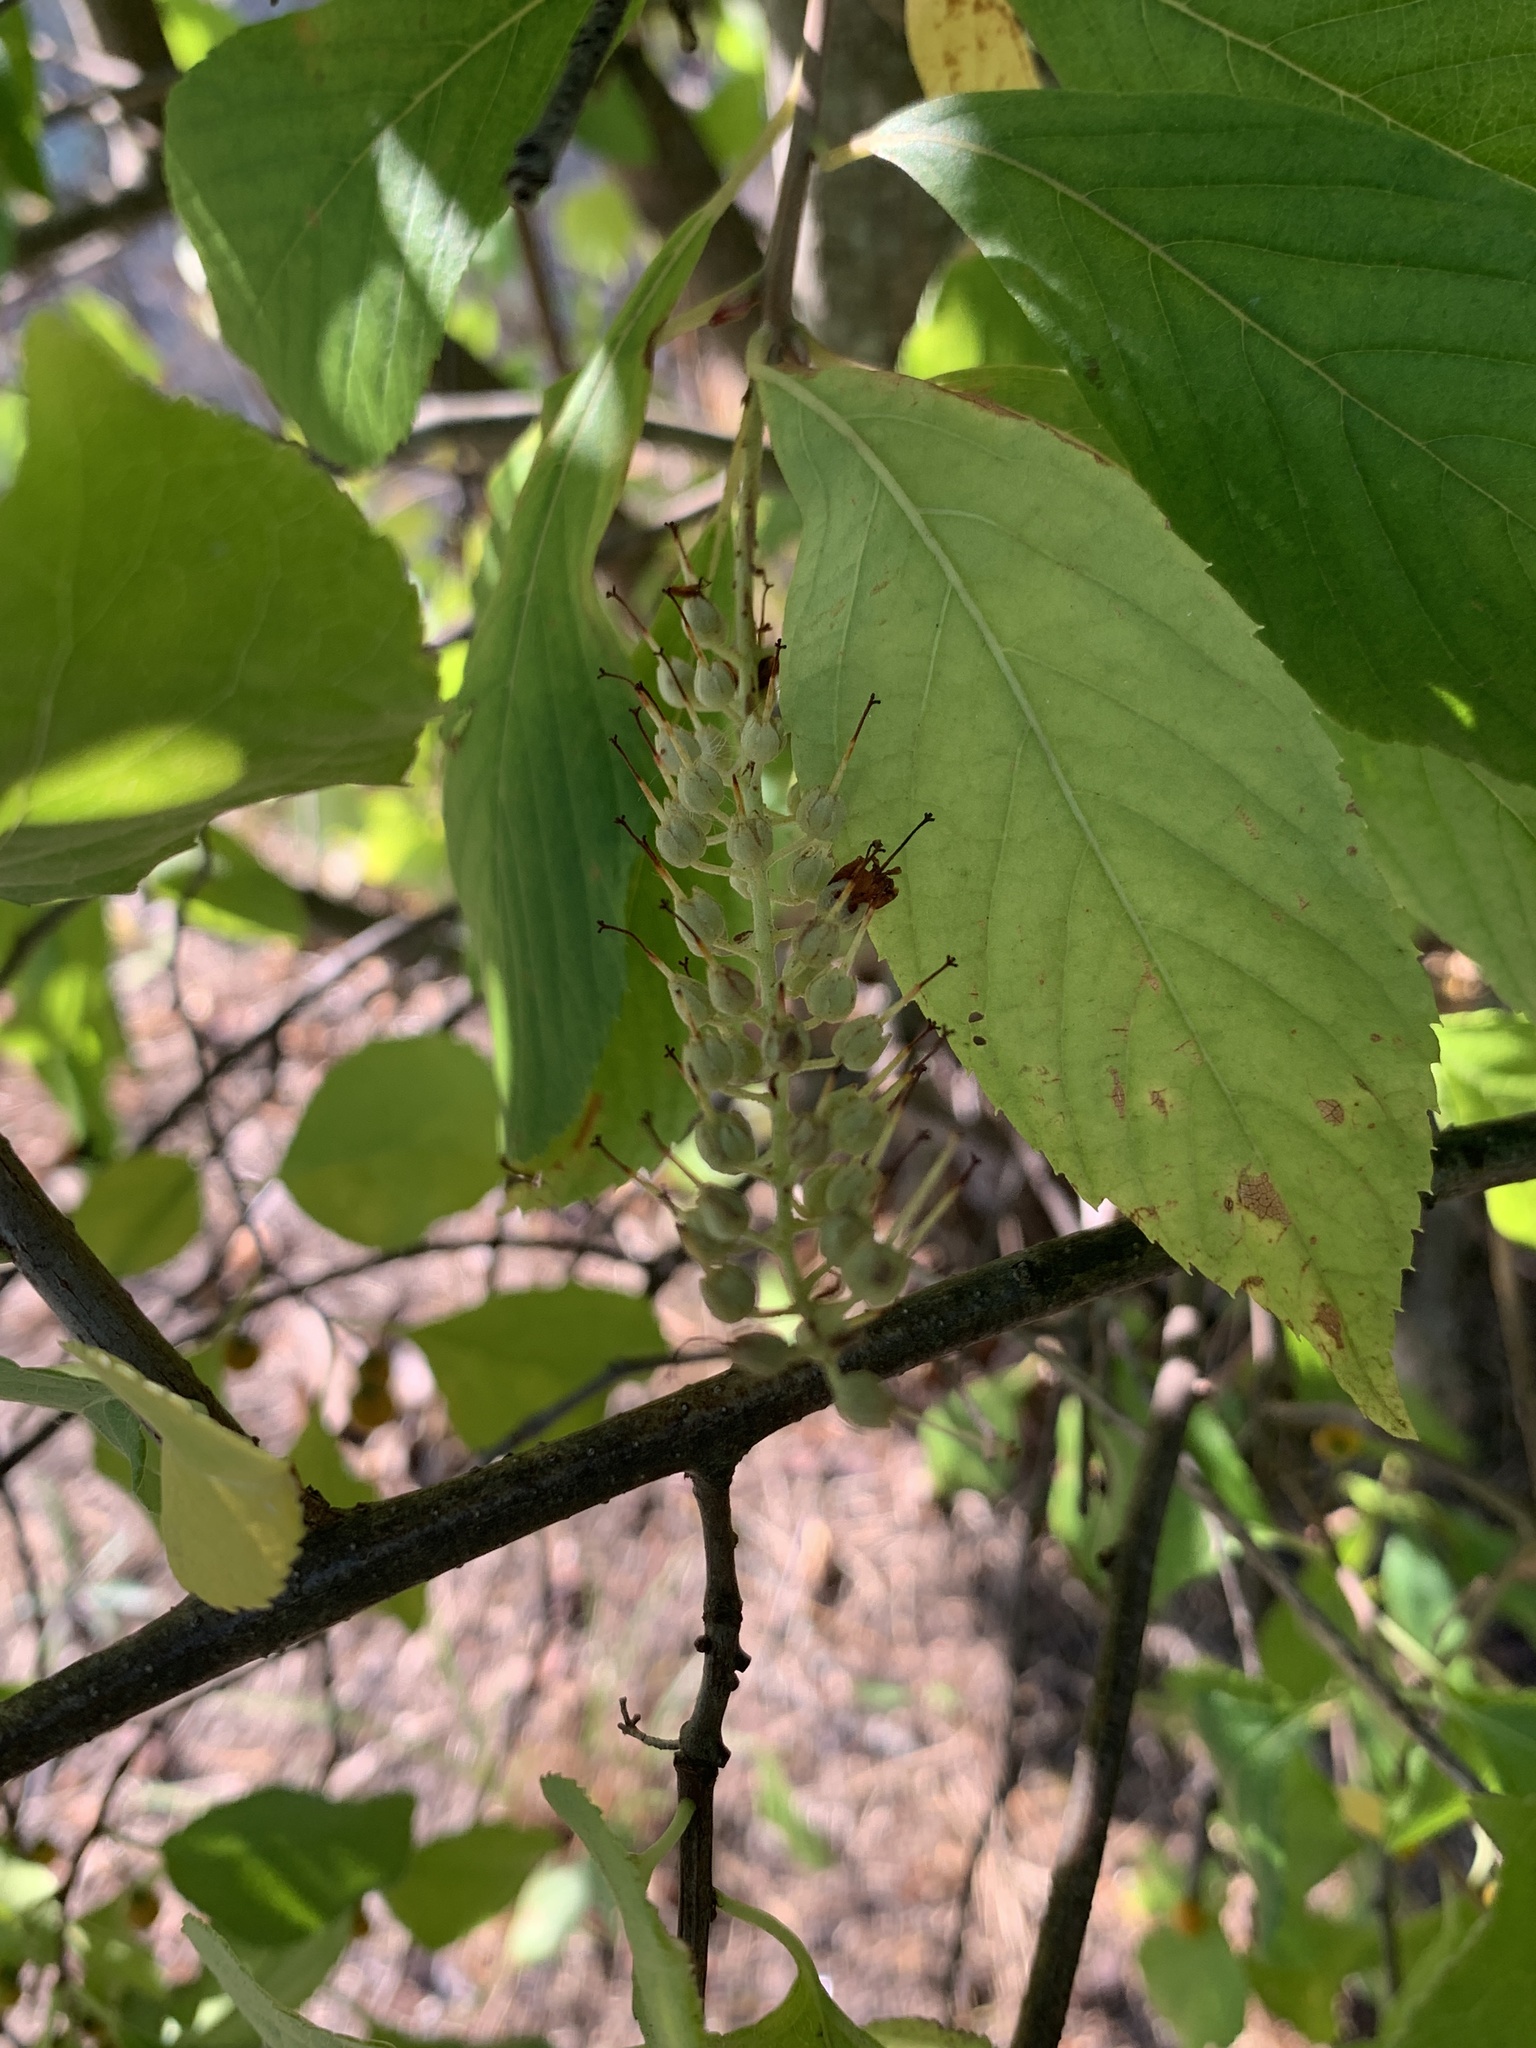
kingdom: Plantae
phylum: Tracheophyta
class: Magnoliopsida
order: Celastrales
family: Celastraceae
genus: Celastrus
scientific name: Celastrus orbiculatus
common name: Oriental bittersweet
